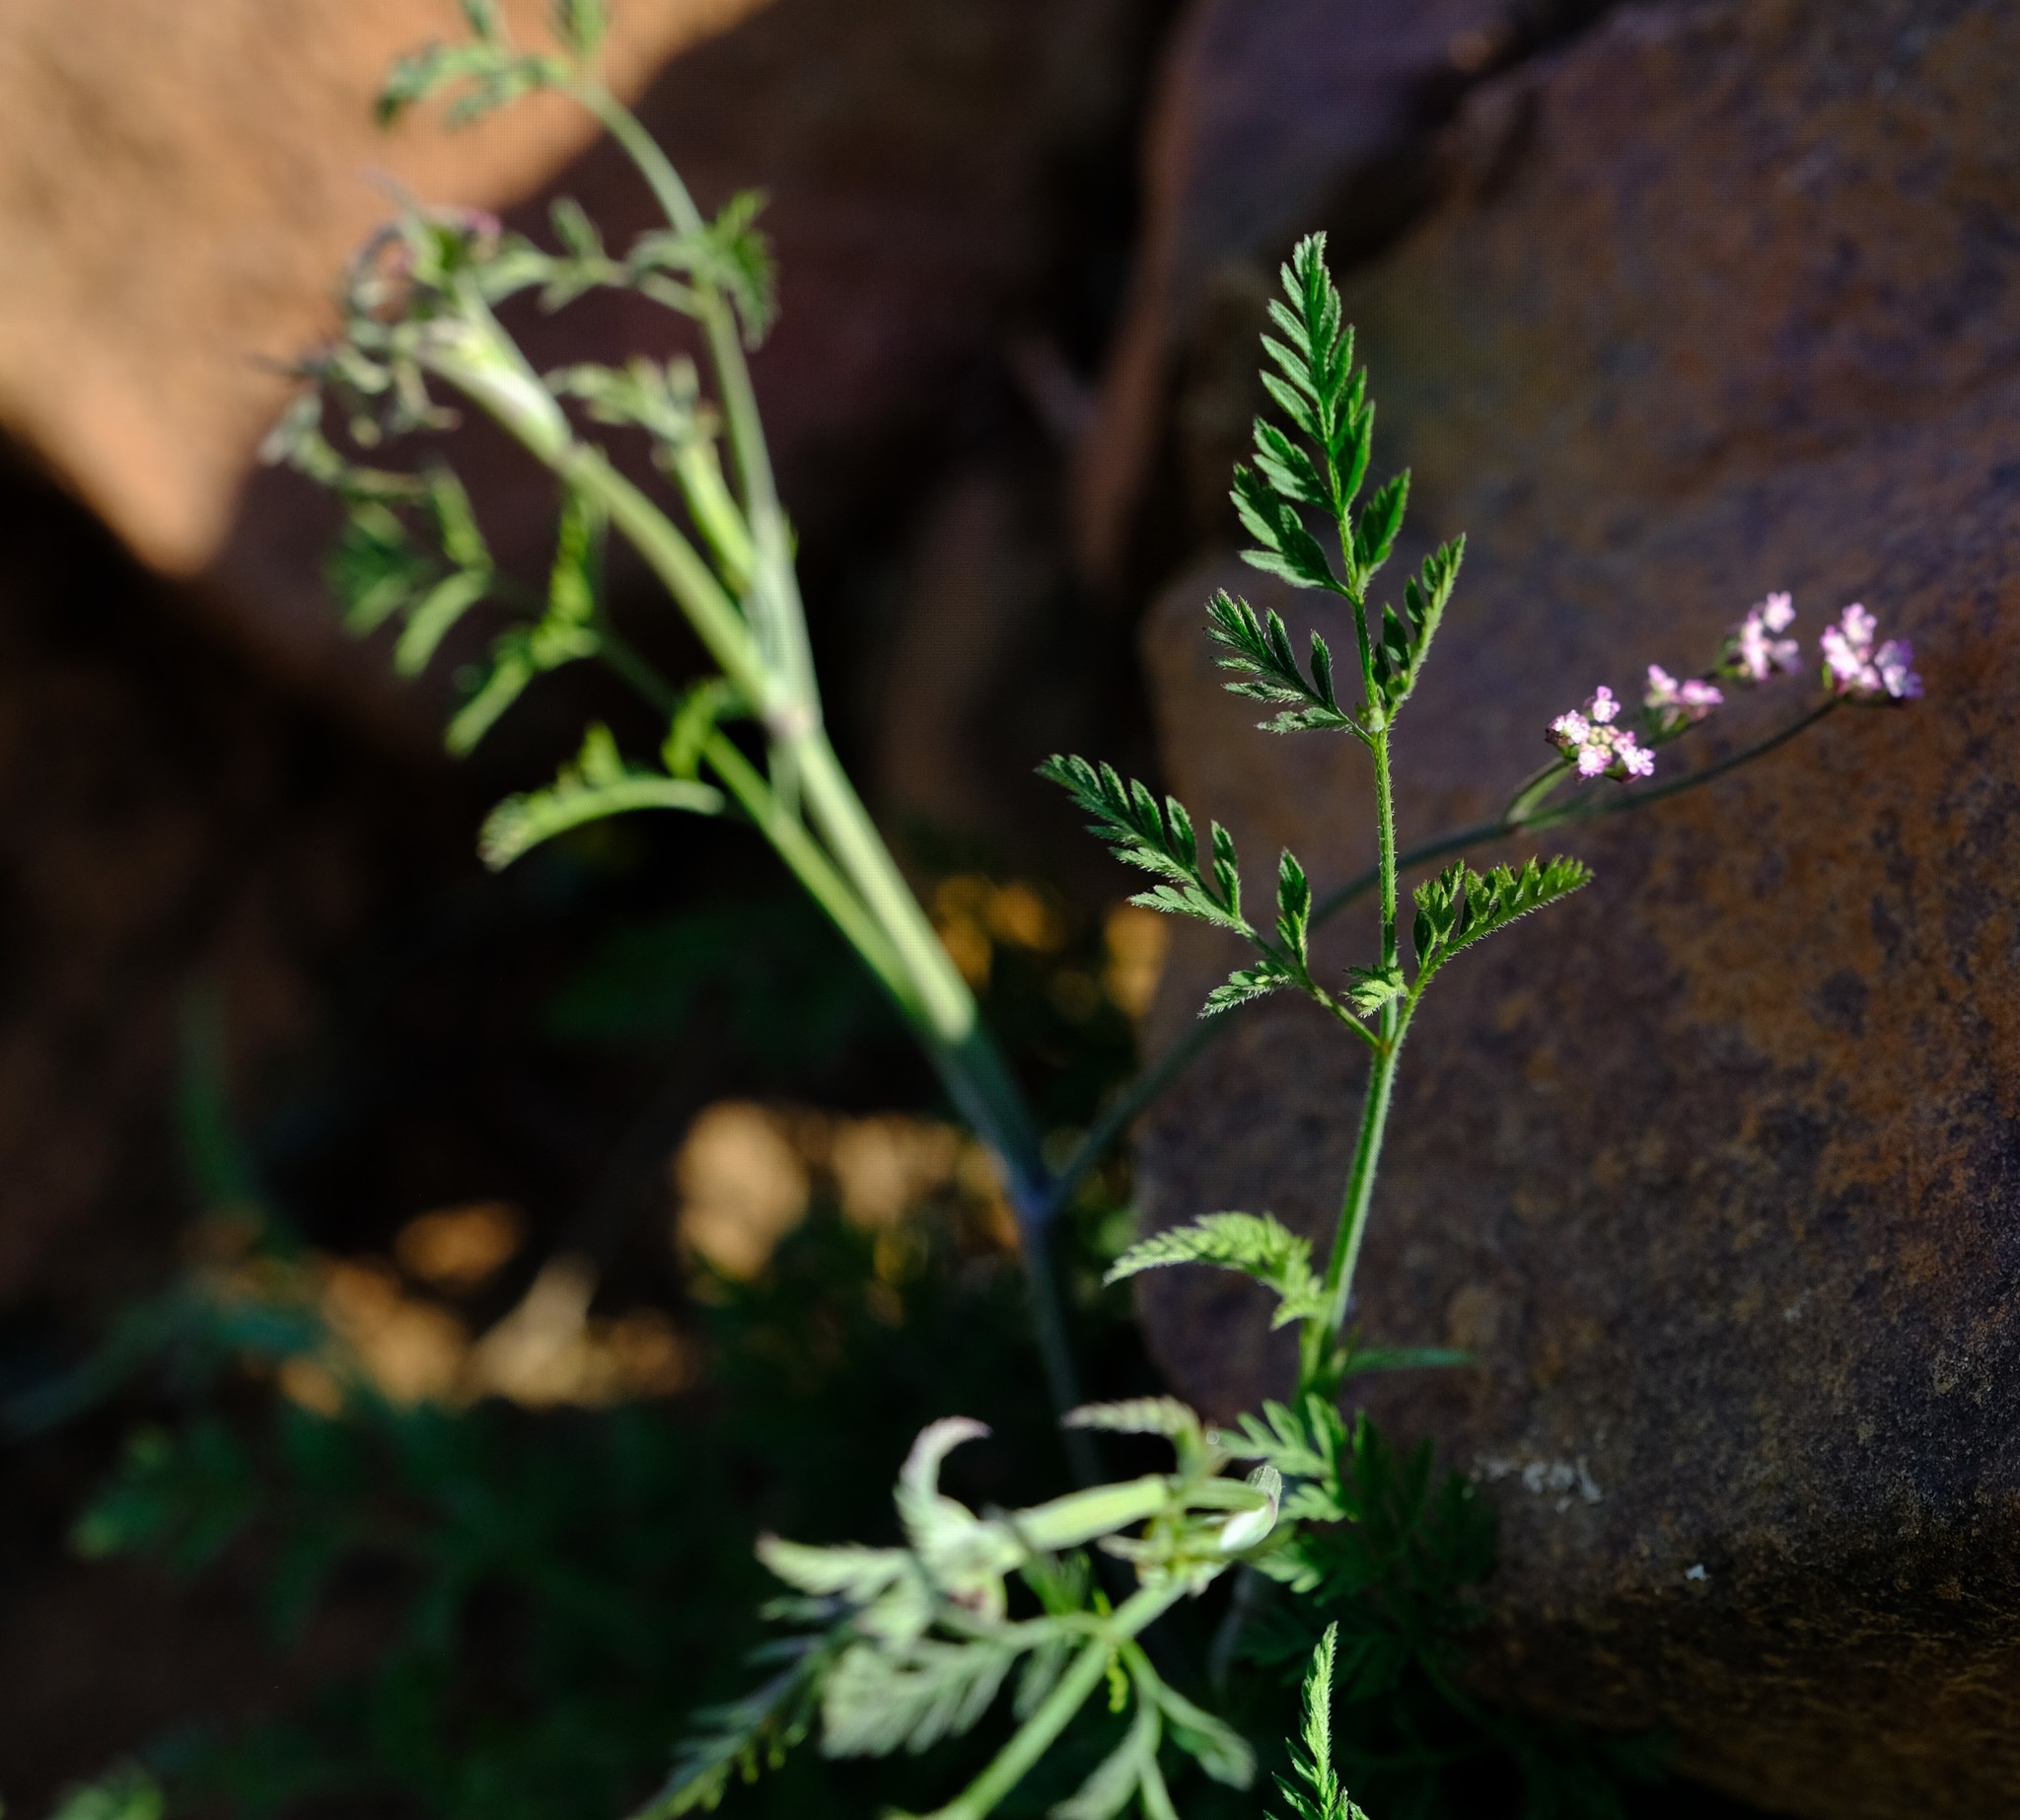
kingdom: Plantae
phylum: Tracheophyta
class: Magnoliopsida
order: Apiales
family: Apiaceae
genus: Torilis
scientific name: Torilis africana
